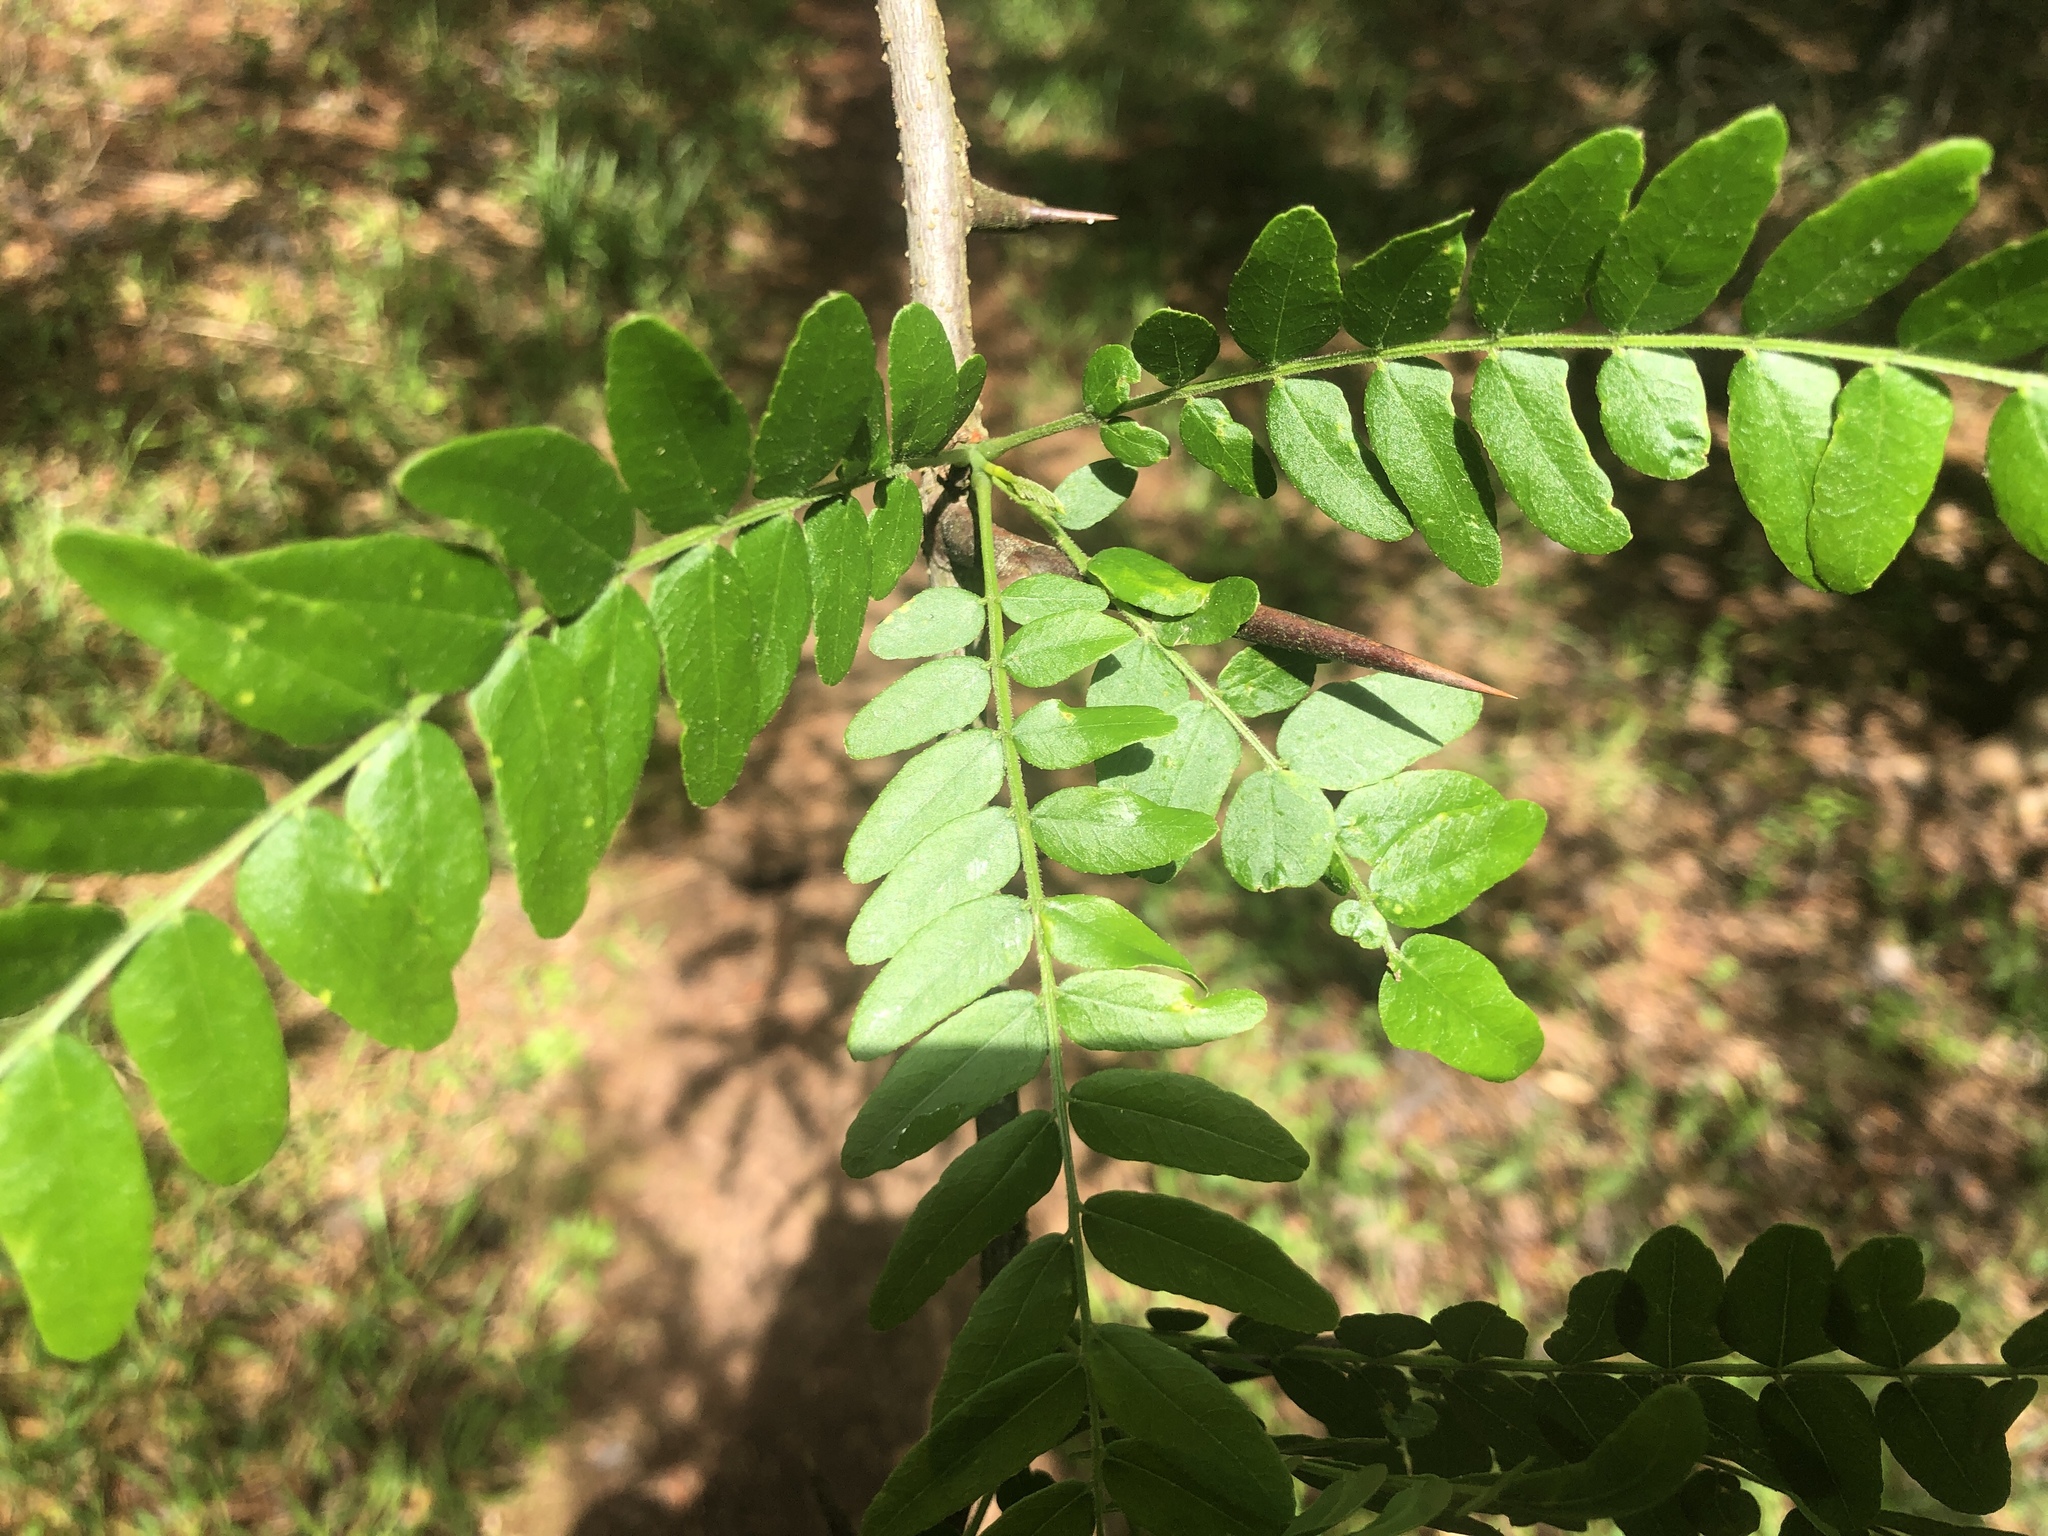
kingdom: Plantae
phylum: Tracheophyta
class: Magnoliopsida
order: Fabales
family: Fabaceae
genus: Gleditsia
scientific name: Gleditsia triacanthos
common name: Common honeylocust
